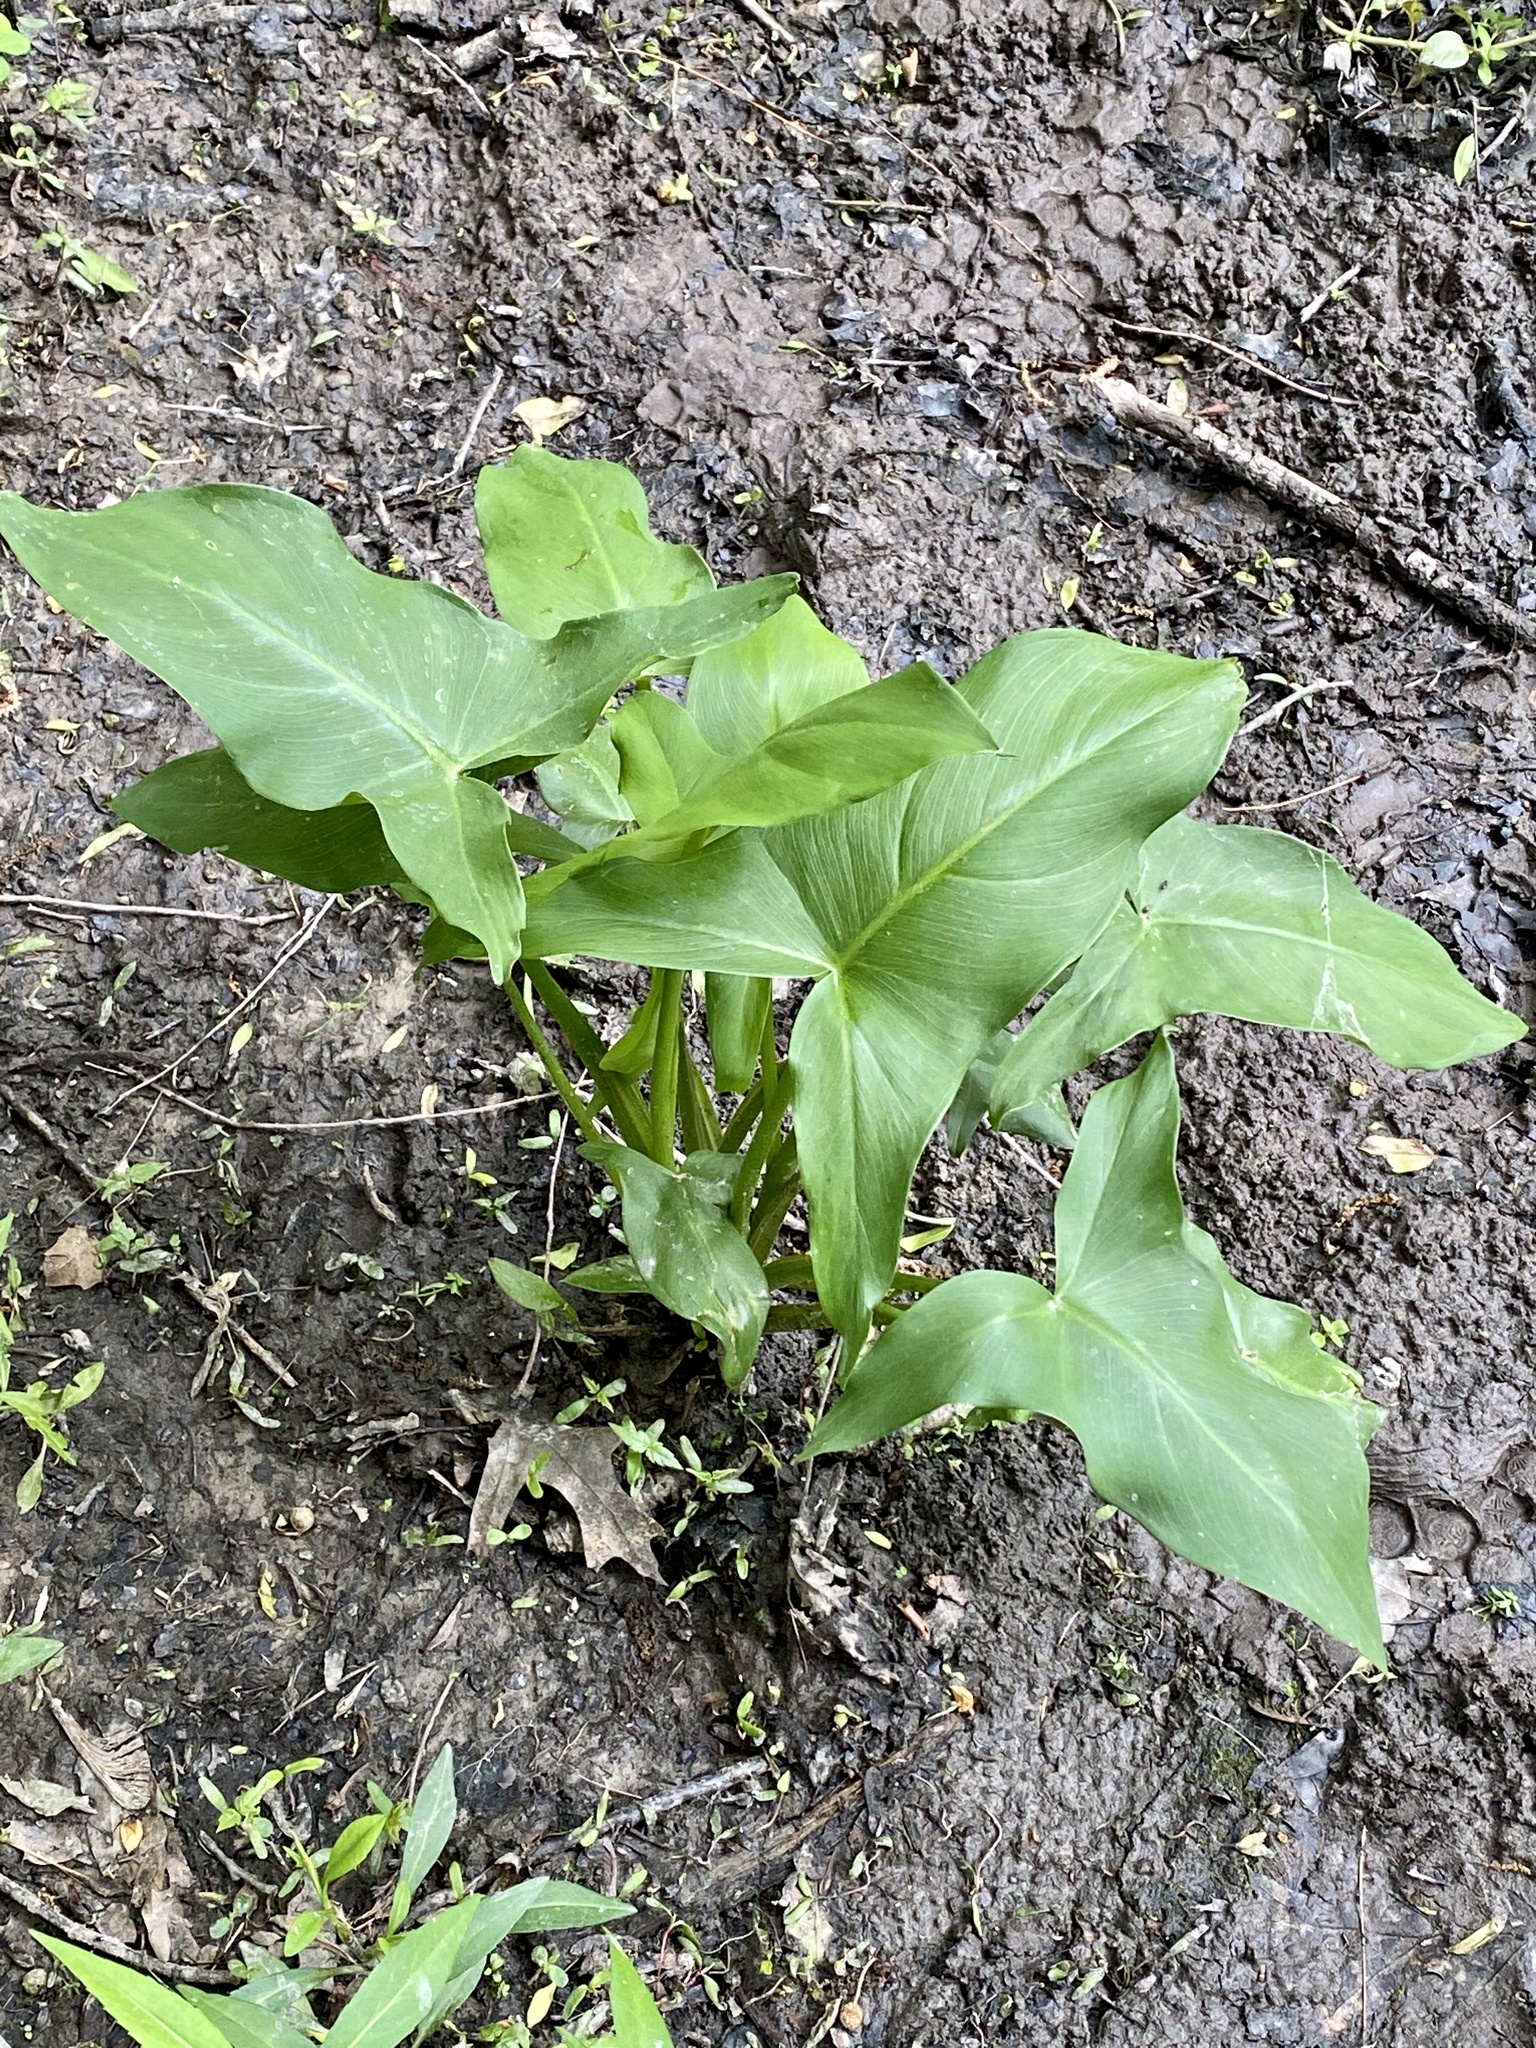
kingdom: Plantae
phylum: Tracheophyta
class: Liliopsida
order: Alismatales
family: Araceae
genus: Peltandra
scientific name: Peltandra virginica
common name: Arrow arum
